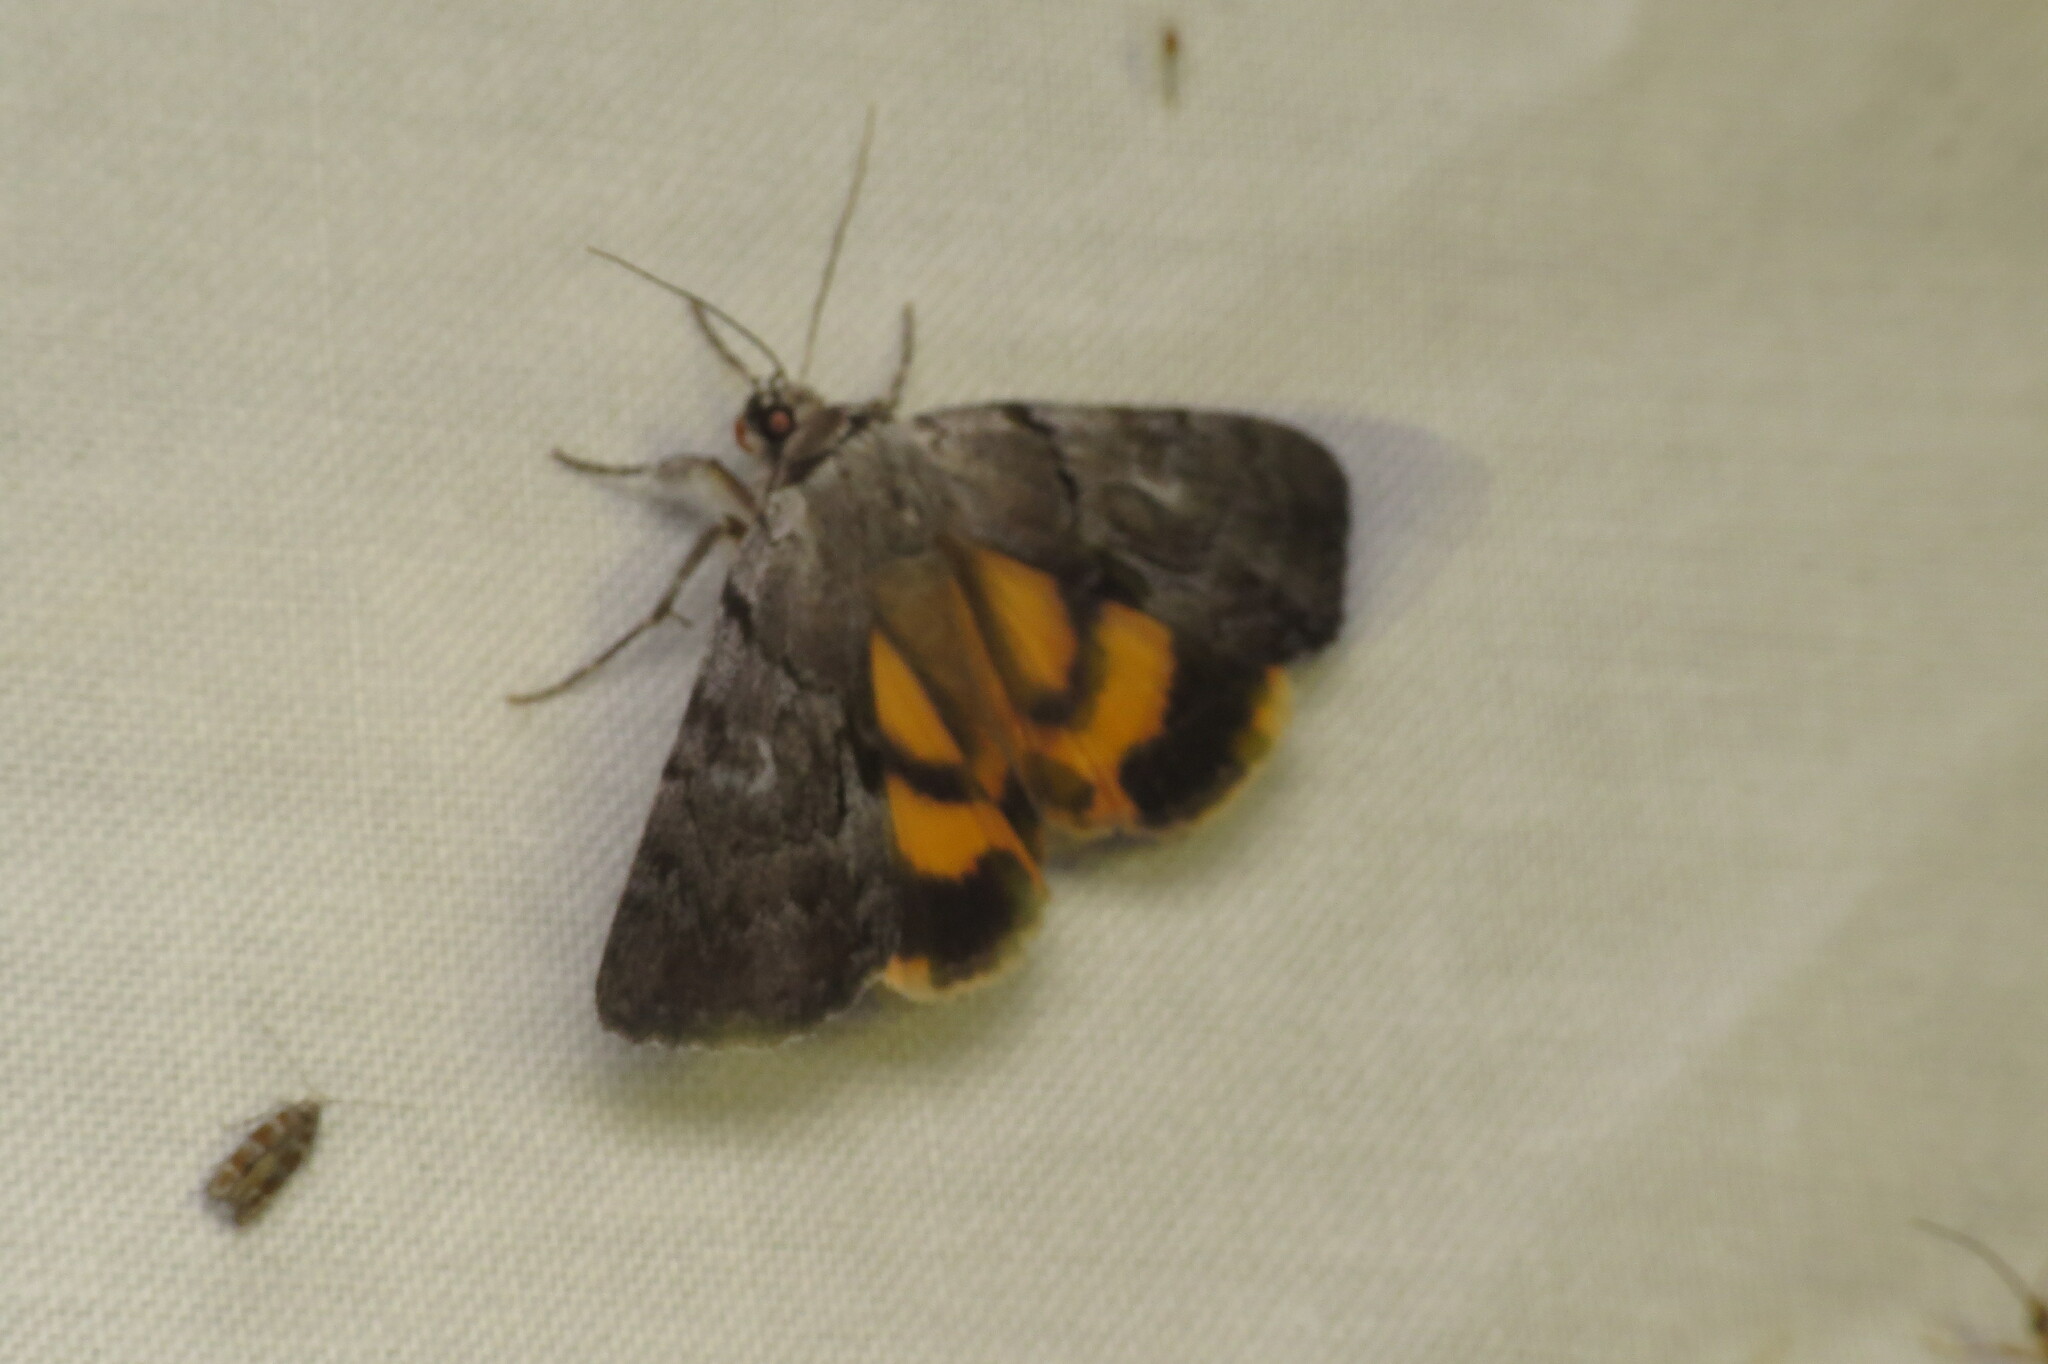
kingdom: Animalia
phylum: Arthropoda
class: Insecta
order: Lepidoptera
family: Erebidae
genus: Catocala
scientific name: Catocala sordida
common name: Sordid underwing
